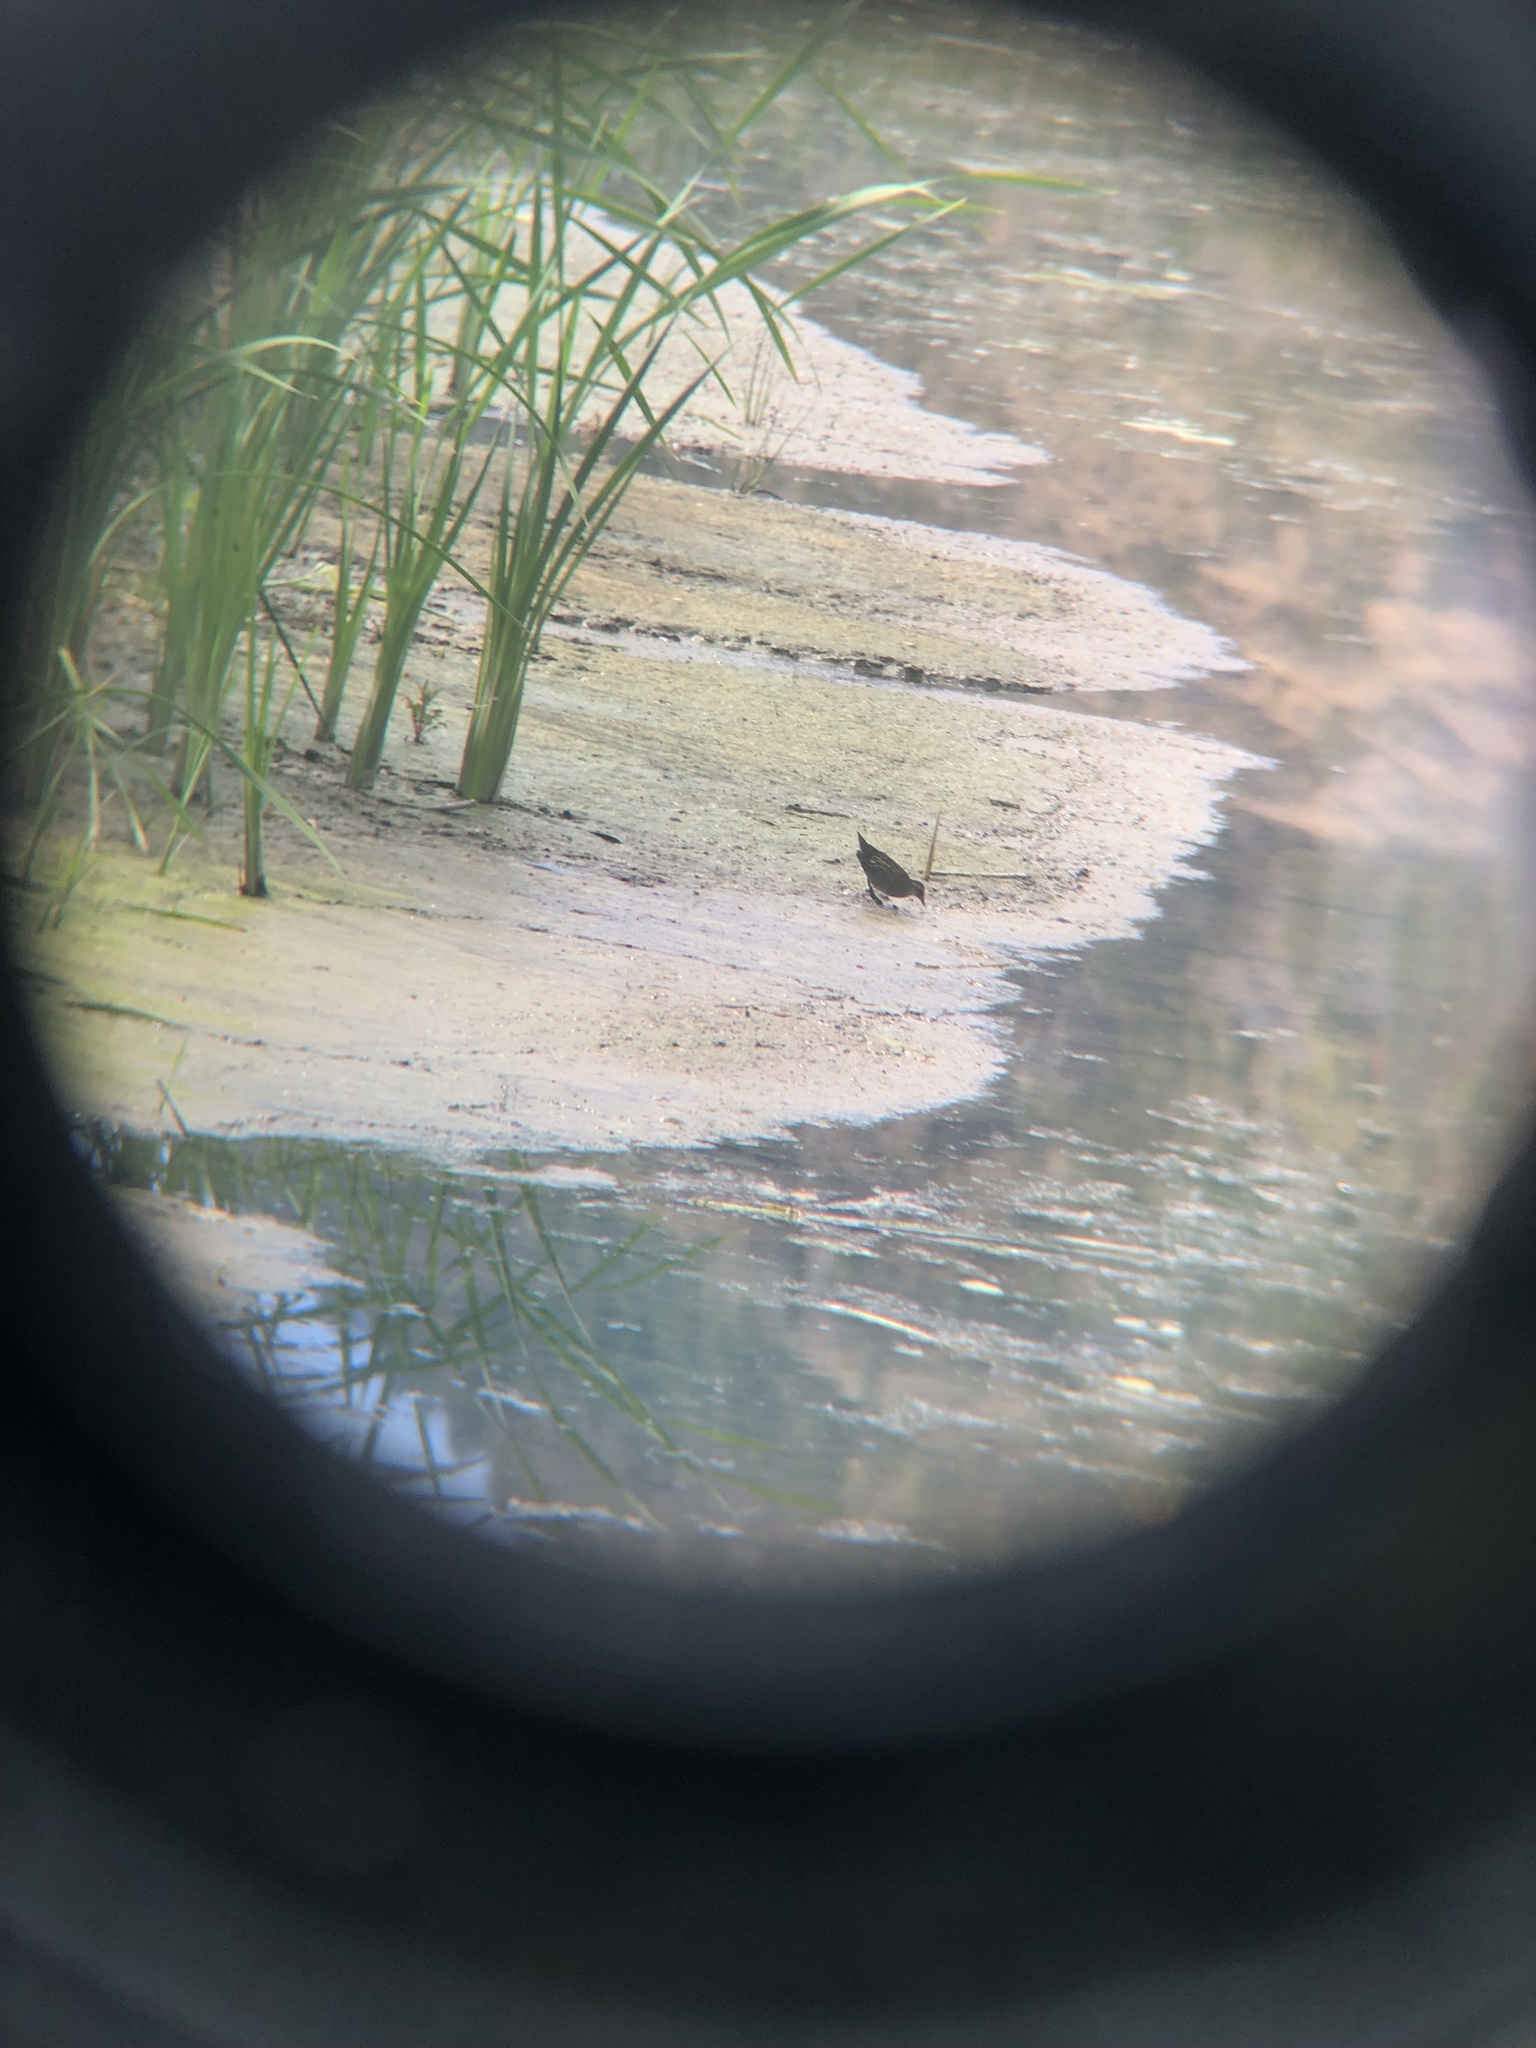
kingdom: Animalia
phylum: Chordata
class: Aves
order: Gruiformes
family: Rallidae
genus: Porzana
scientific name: Porzana carolina
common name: Sora
